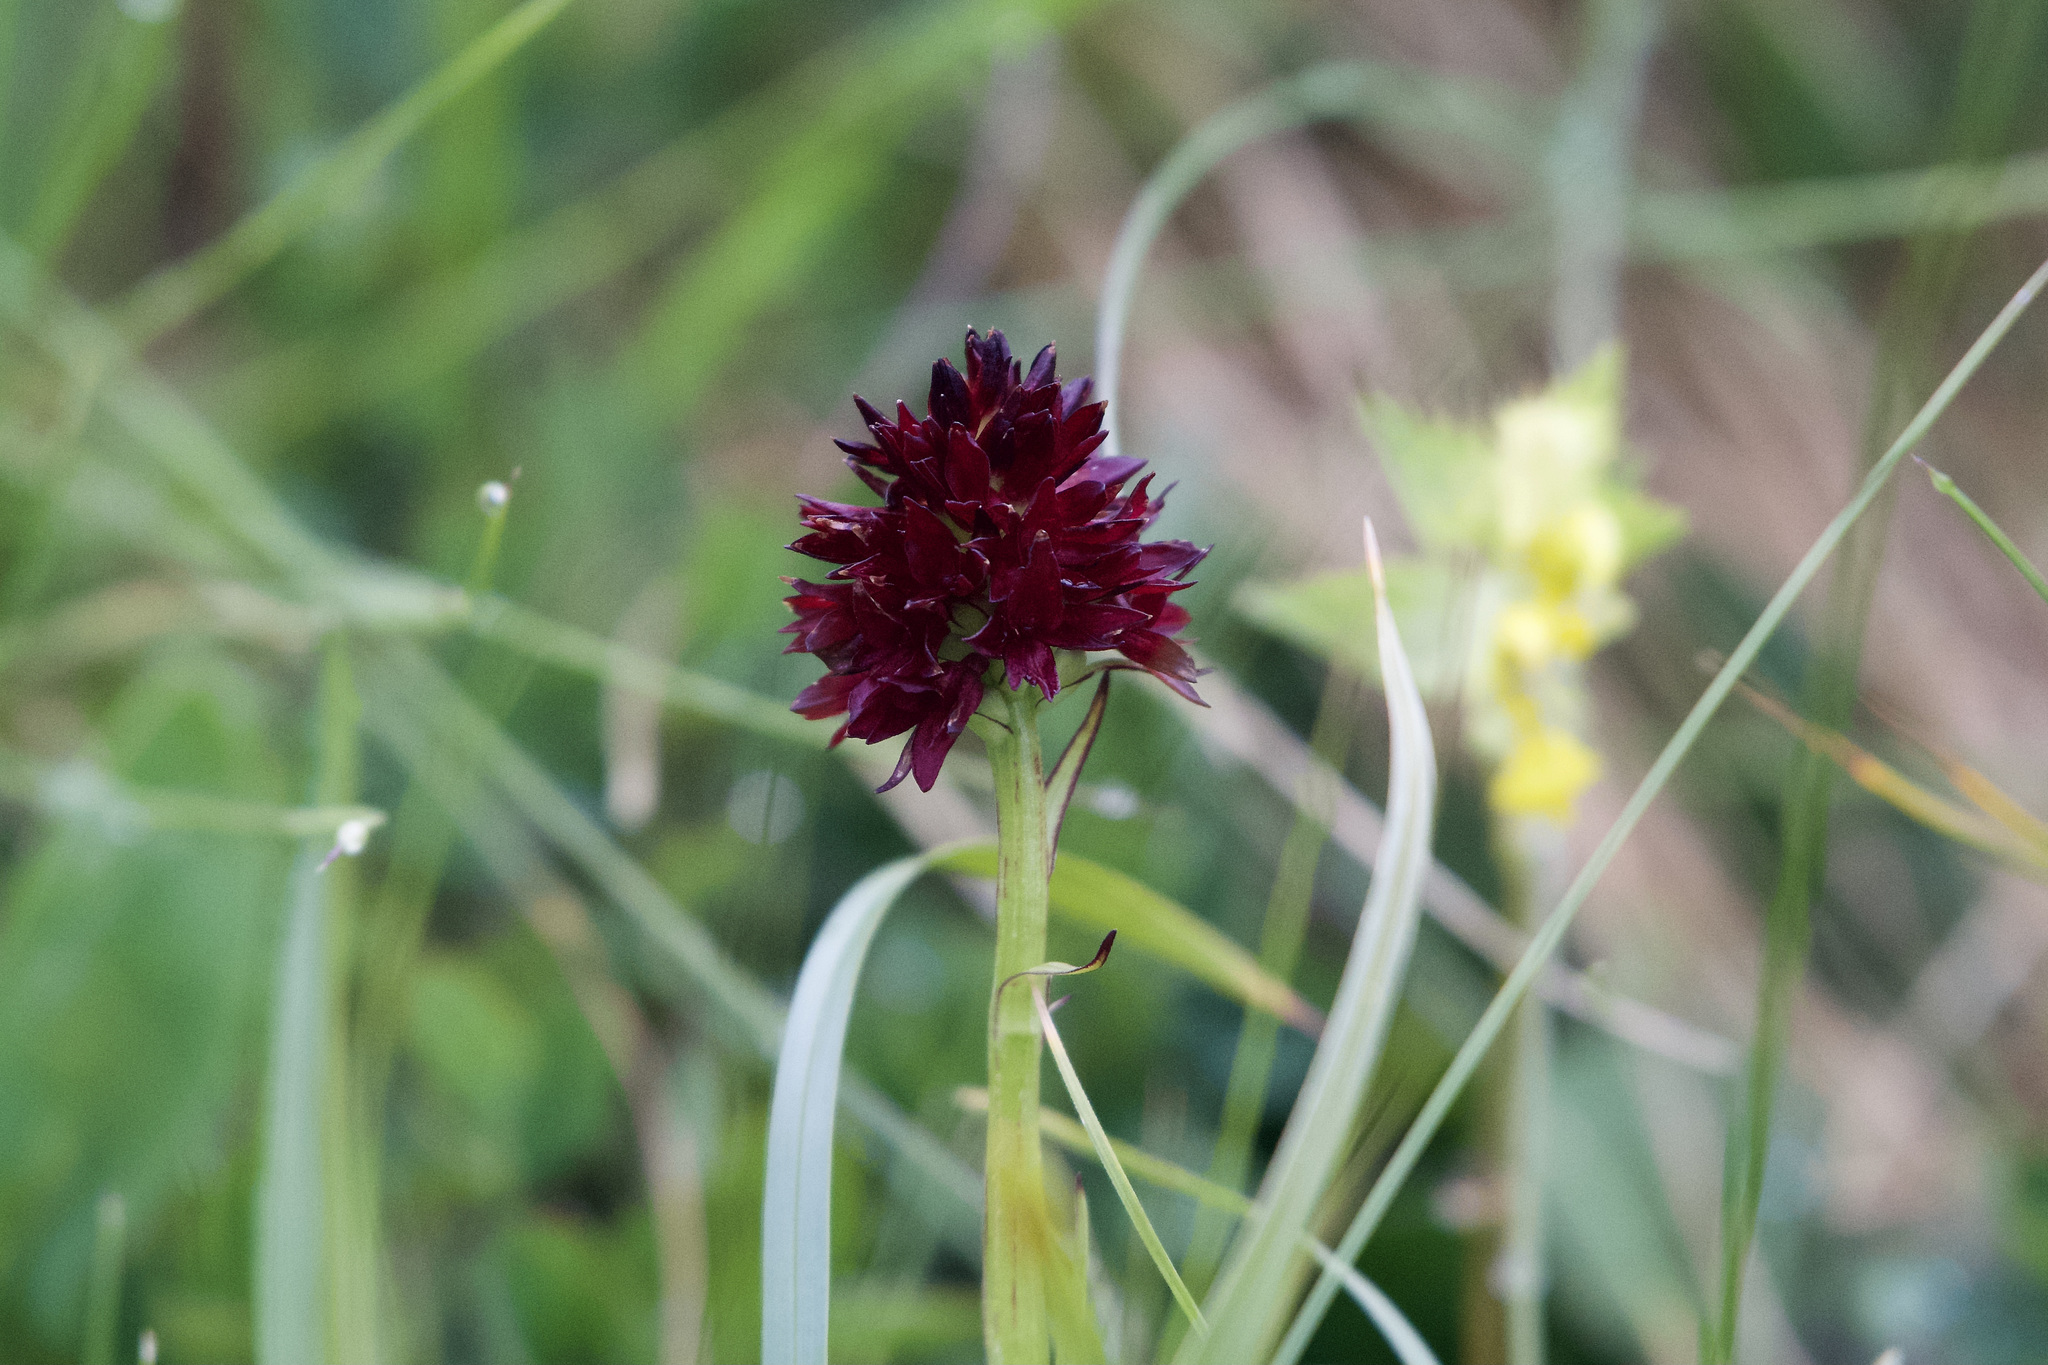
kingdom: Plantae
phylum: Tracheophyta
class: Liliopsida
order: Asparagales
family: Orchidaceae
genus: Gymnadenia
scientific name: Gymnadenia austriaca
